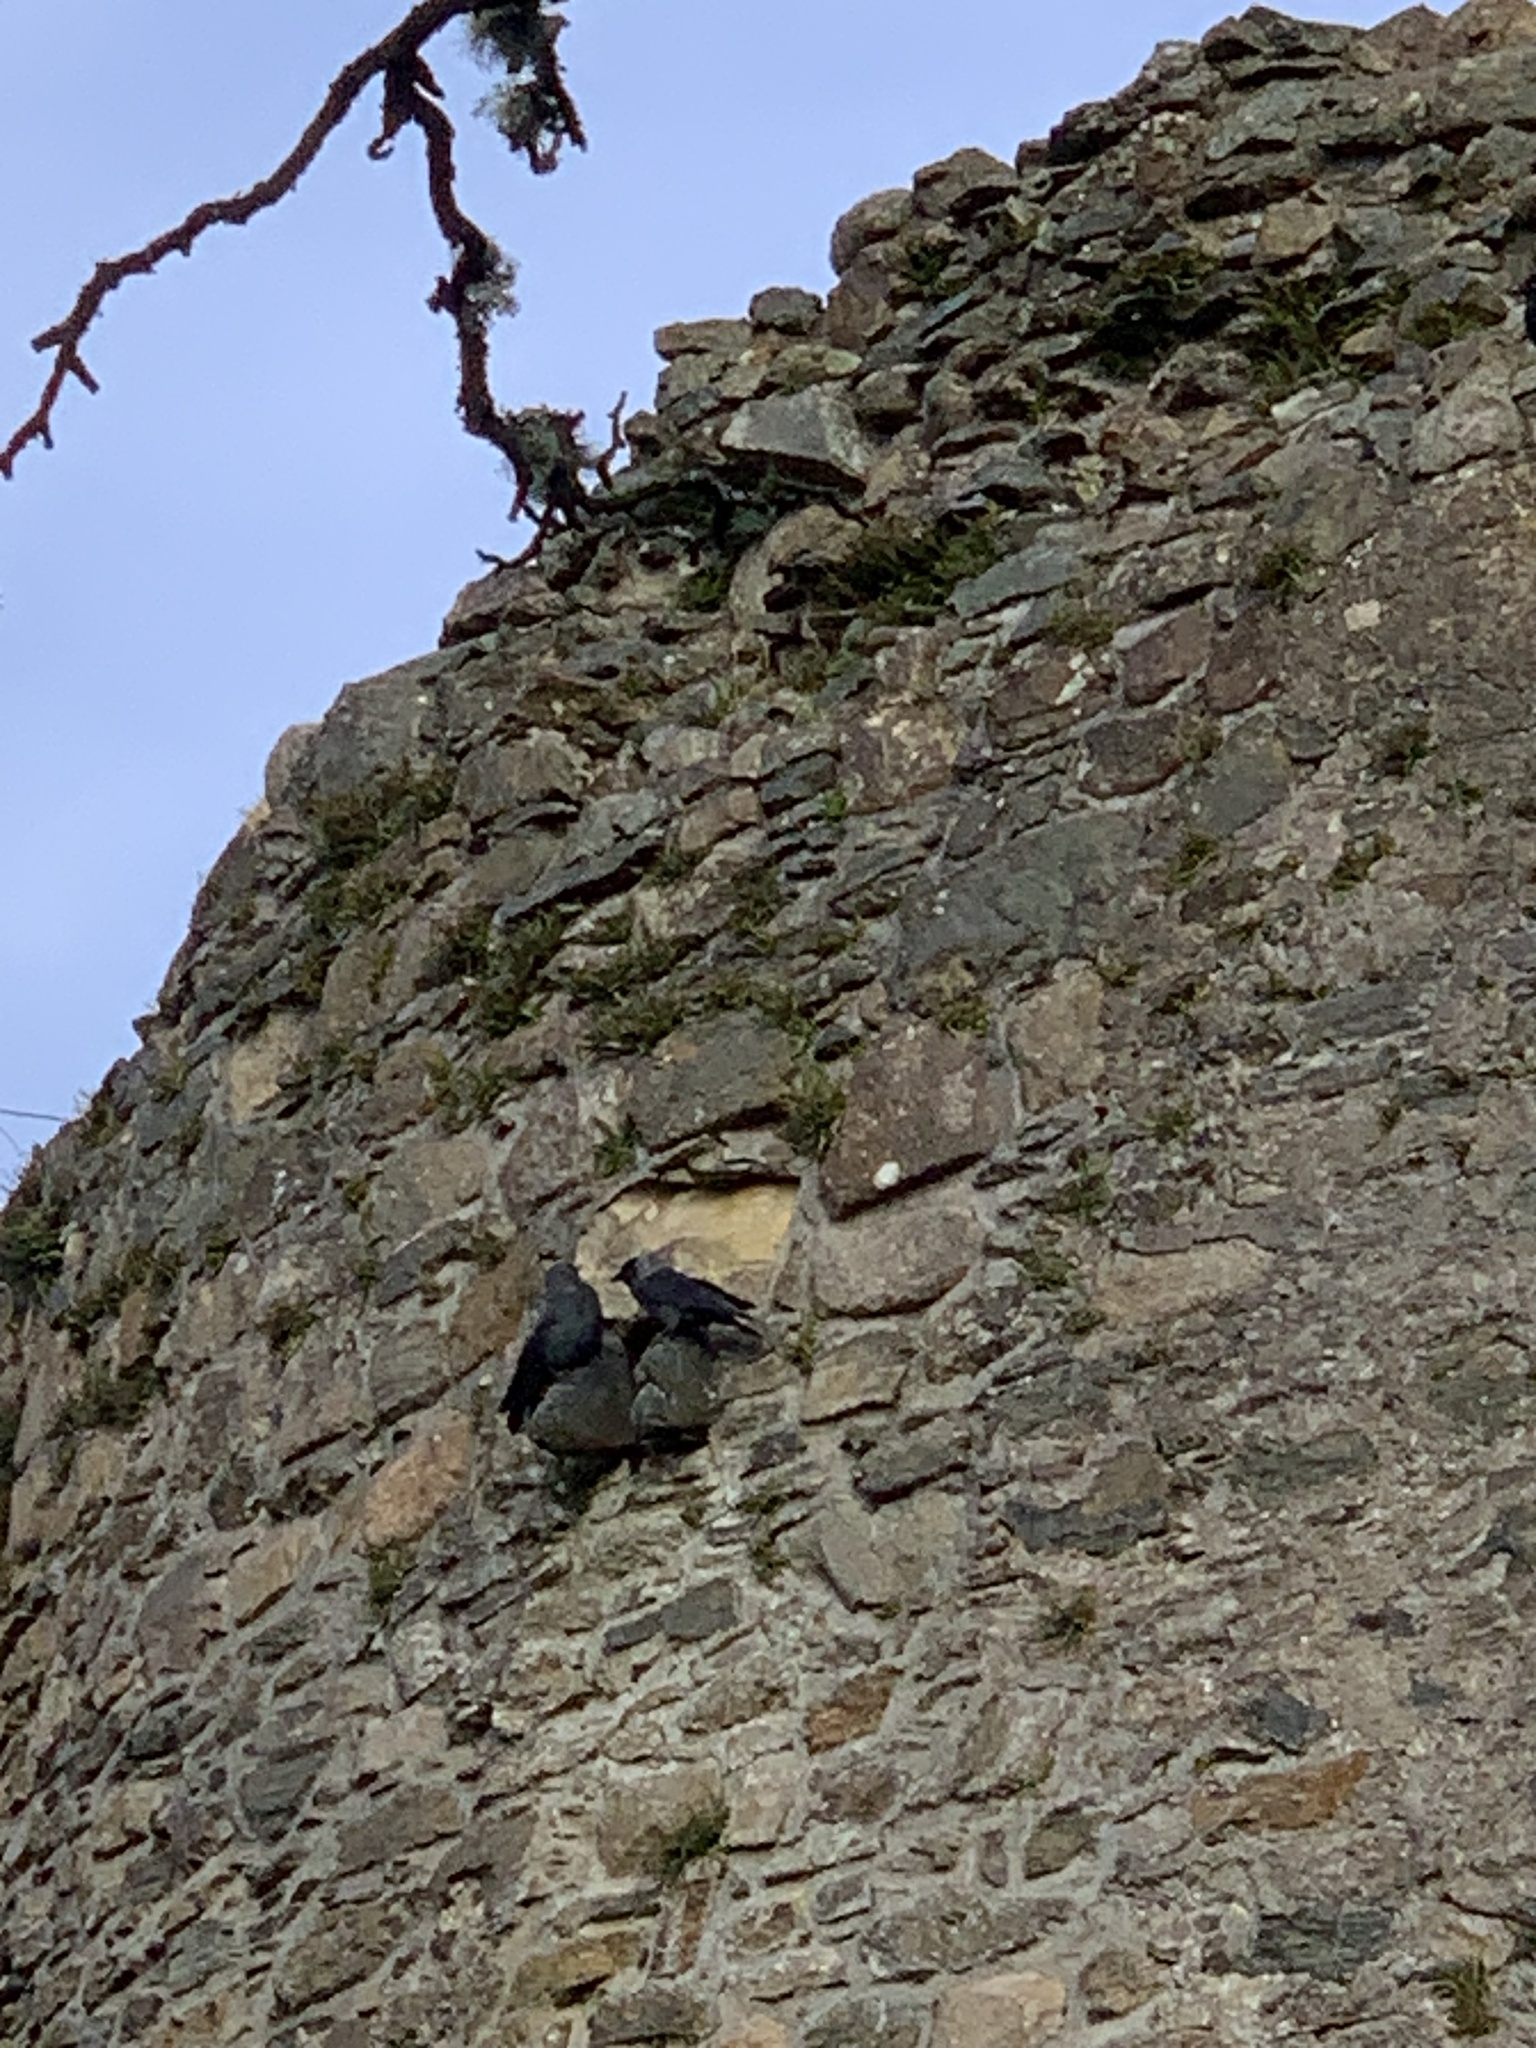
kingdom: Animalia
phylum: Chordata
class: Aves
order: Passeriformes
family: Corvidae
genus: Coloeus
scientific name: Coloeus monedula
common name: Western jackdaw
